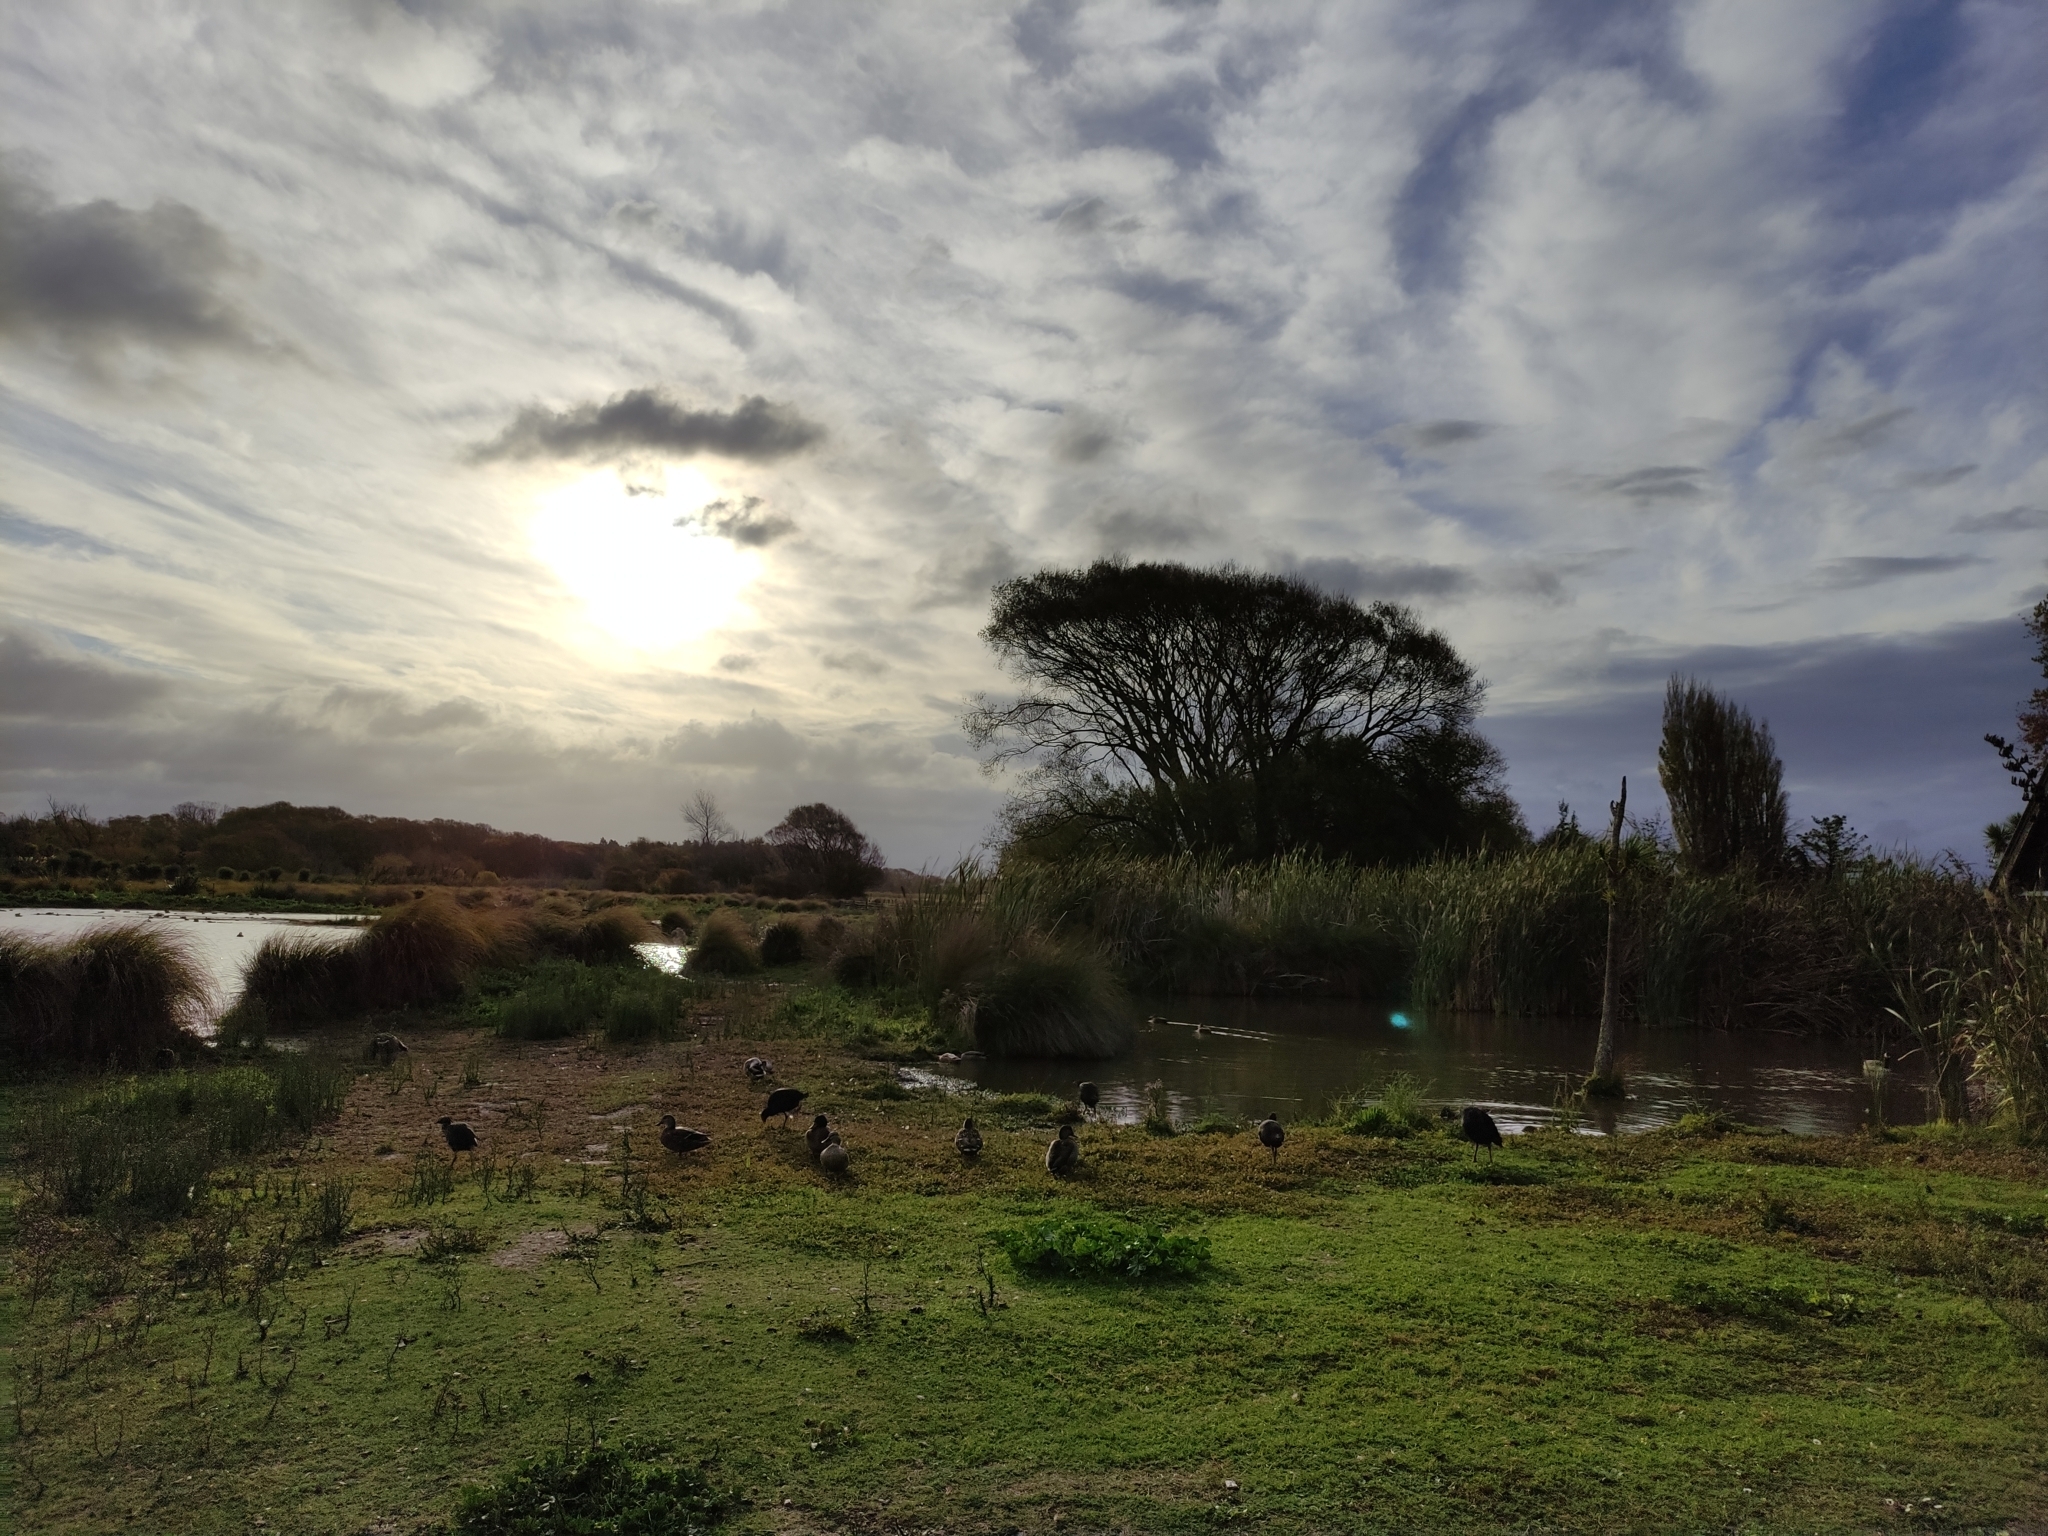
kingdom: Animalia
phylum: Chordata
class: Aves
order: Gruiformes
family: Rallidae
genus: Porphyrio
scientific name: Porphyrio melanotus
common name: Australasian swamphen
